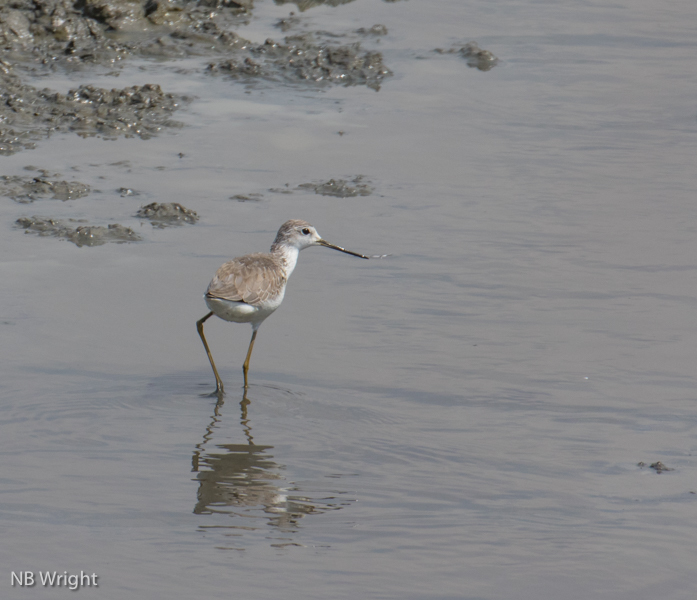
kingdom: Animalia
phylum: Chordata
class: Aves
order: Charadriiformes
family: Scolopacidae
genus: Tringa
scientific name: Tringa stagnatilis
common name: Marsh sandpiper
